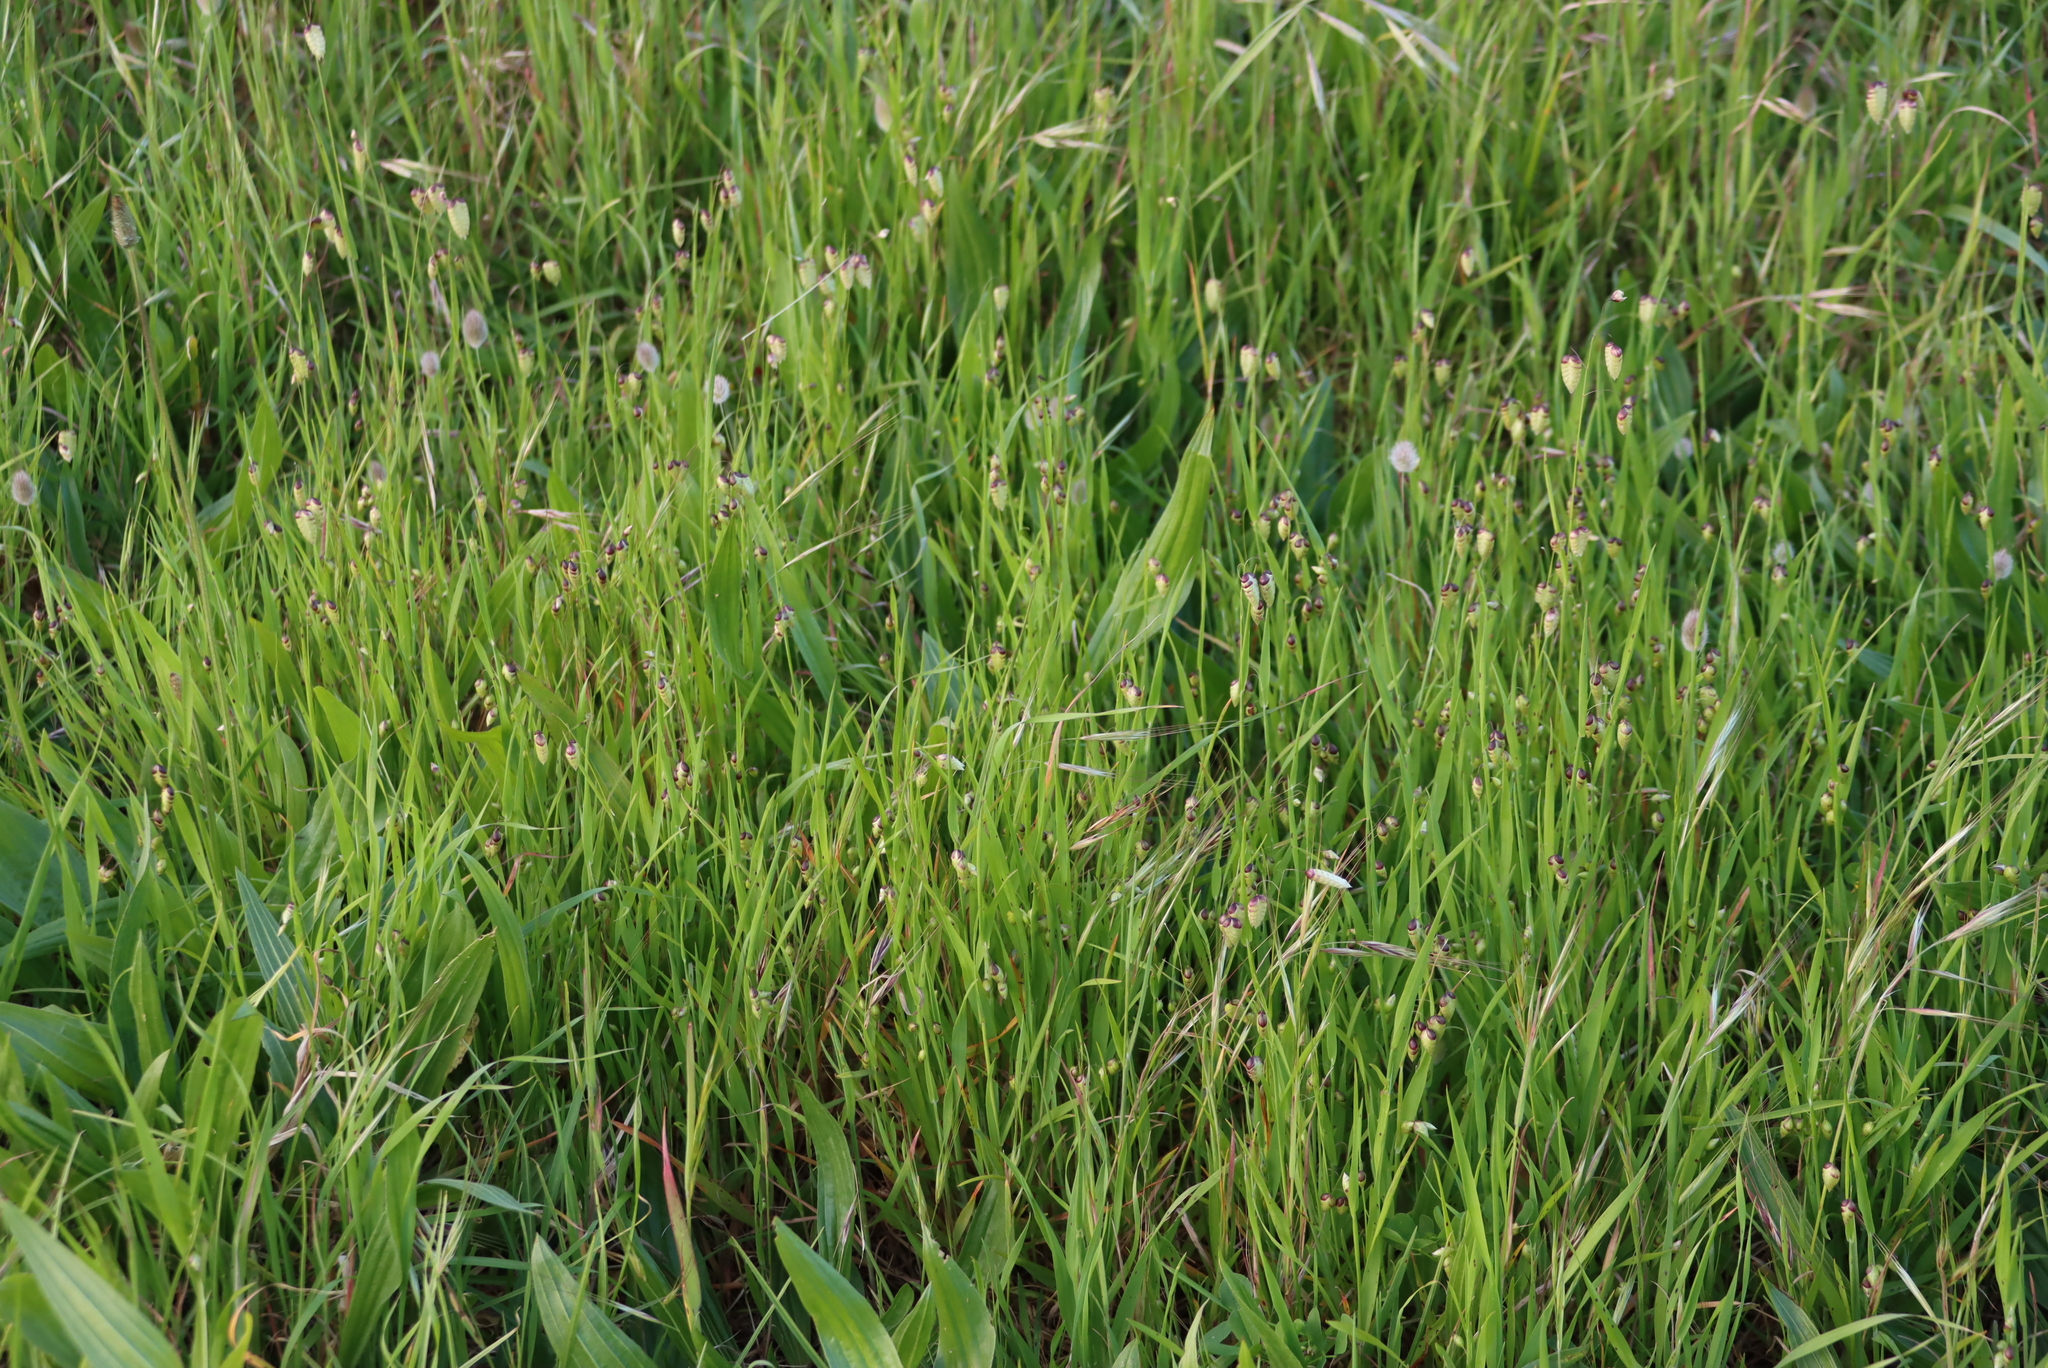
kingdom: Plantae
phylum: Tracheophyta
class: Liliopsida
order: Poales
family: Poaceae
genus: Briza
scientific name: Briza maxima
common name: Big quakinggrass
